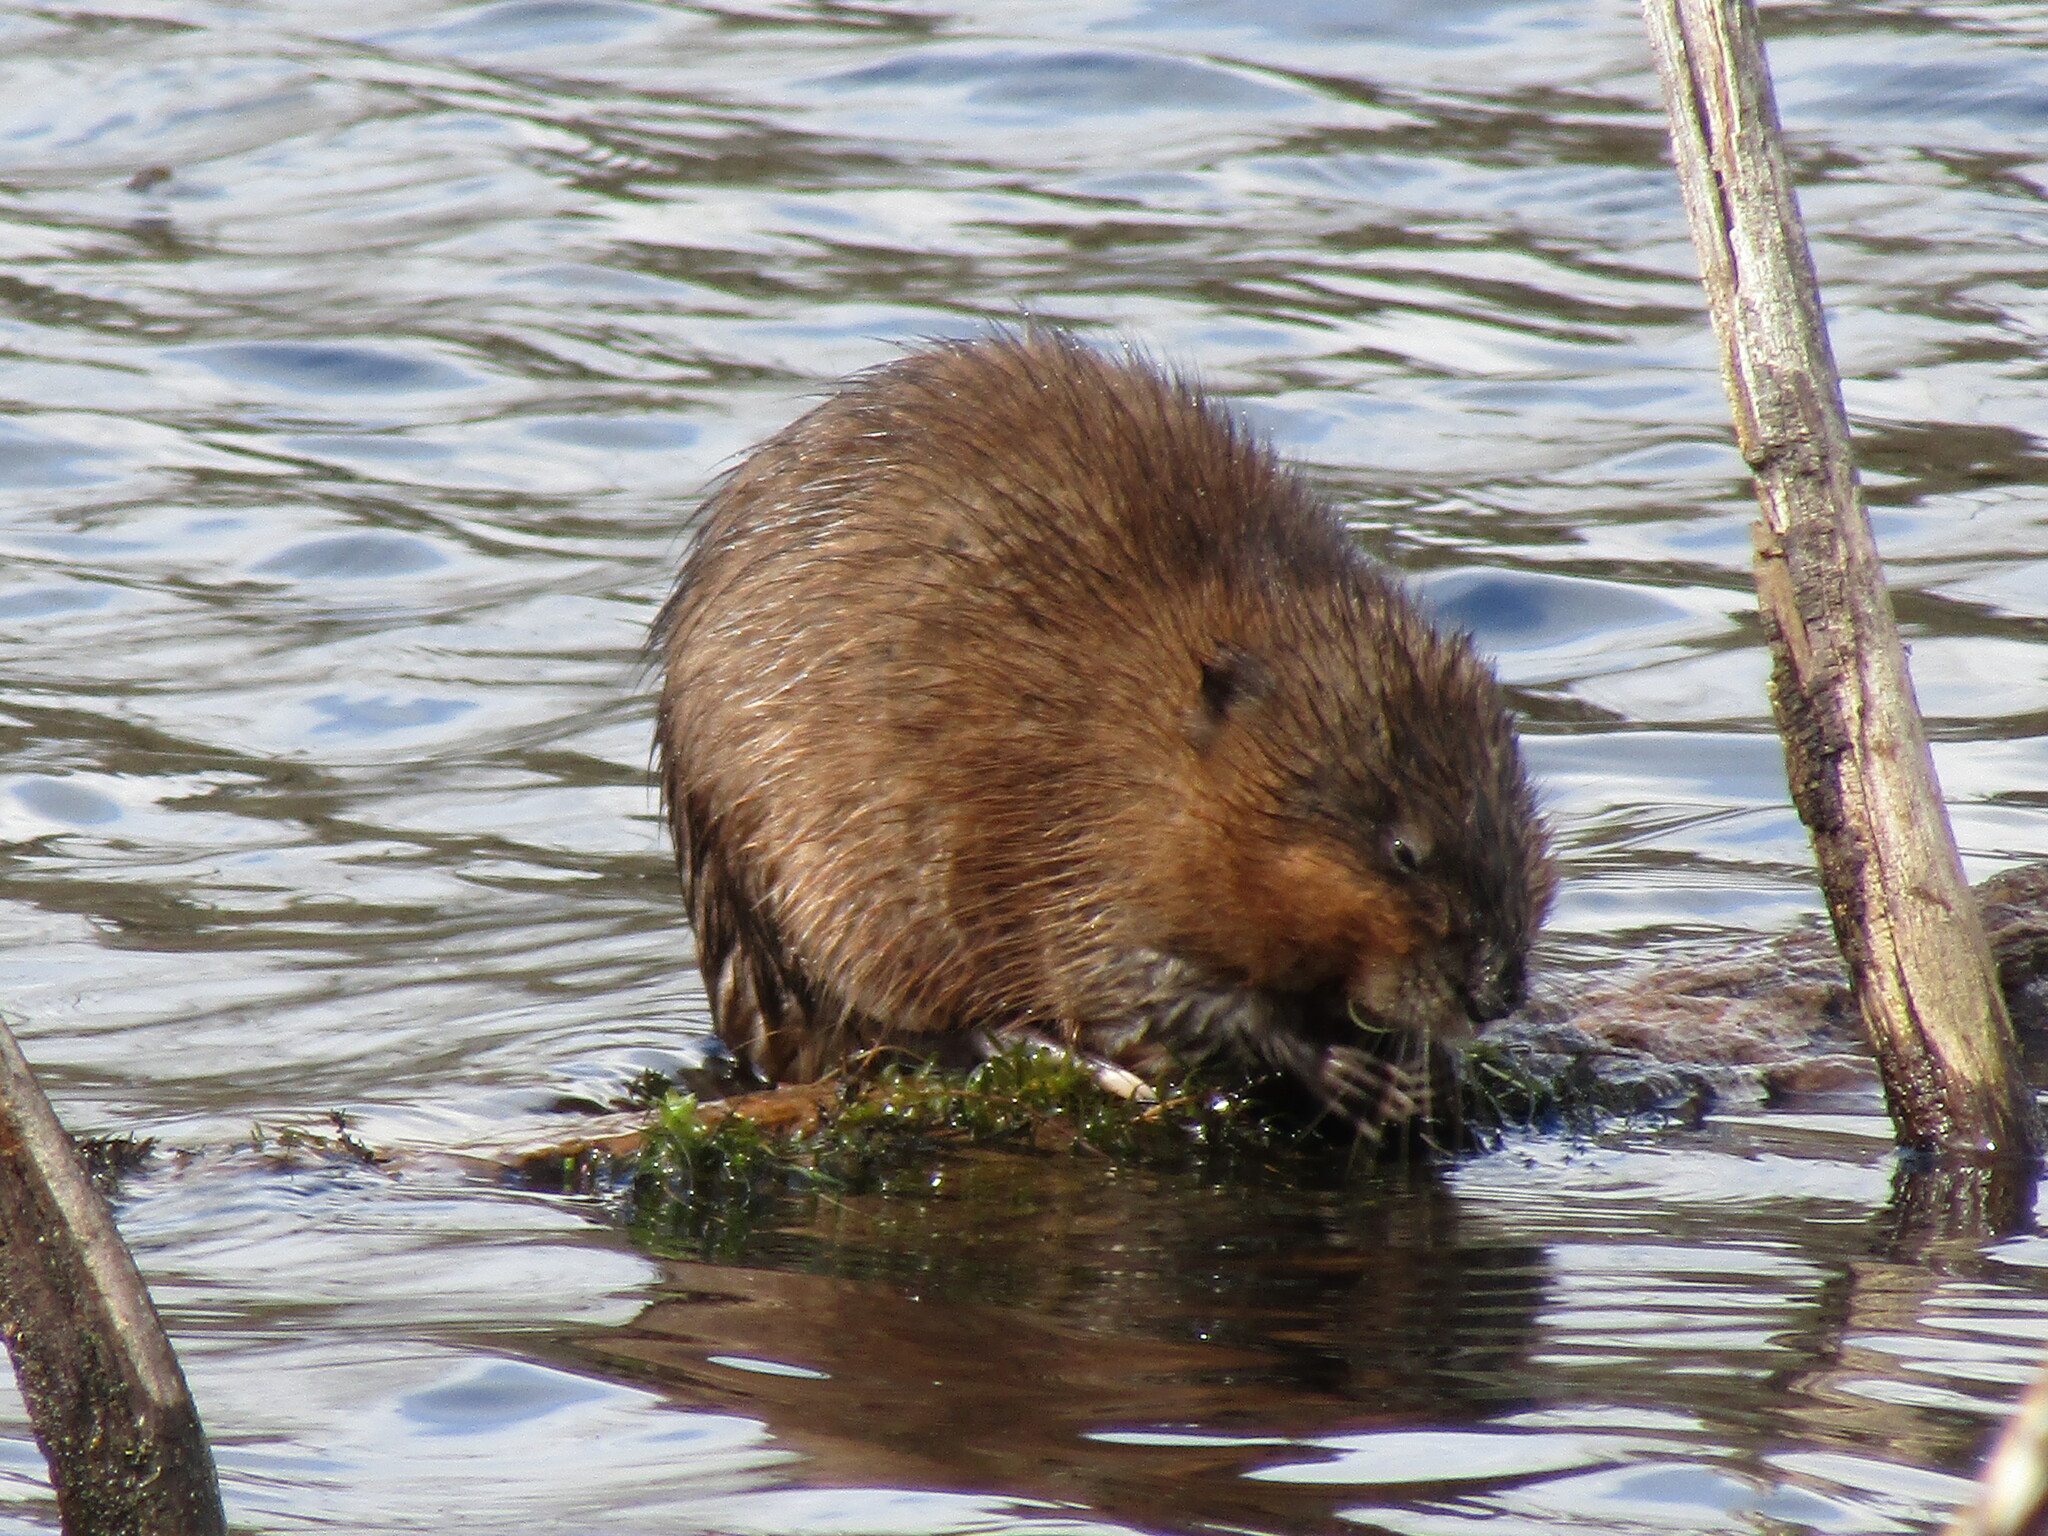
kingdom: Animalia
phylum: Chordata
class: Mammalia
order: Rodentia
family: Cricetidae
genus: Ondatra
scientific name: Ondatra zibethicus
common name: Muskrat
